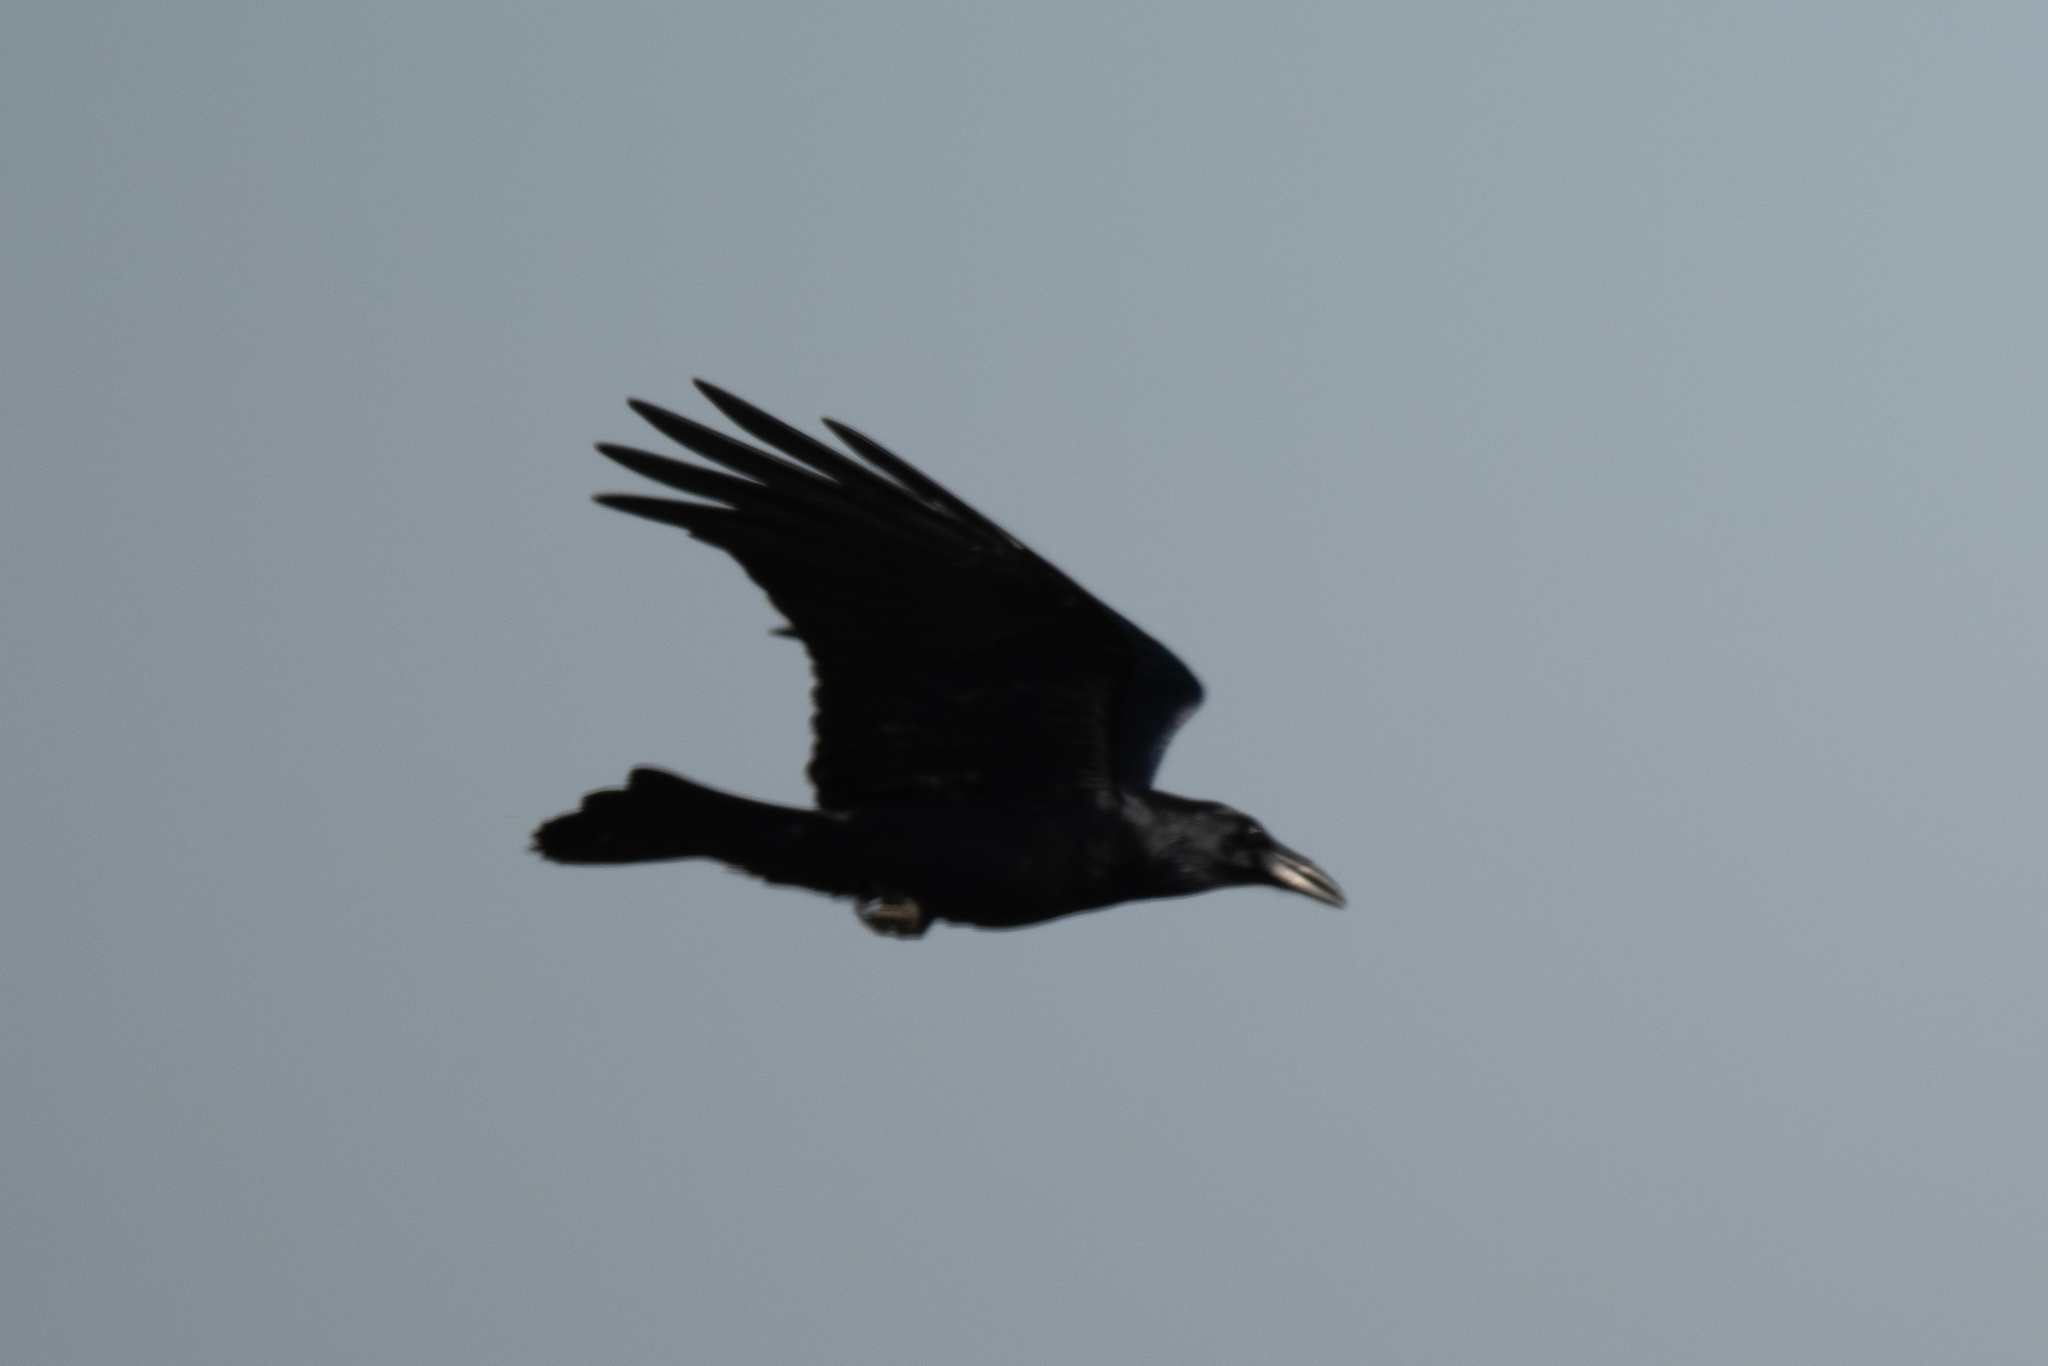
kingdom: Animalia
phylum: Chordata
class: Aves
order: Passeriformes
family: Corvidae
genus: Corvus
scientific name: Corvus corax
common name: Common raven
